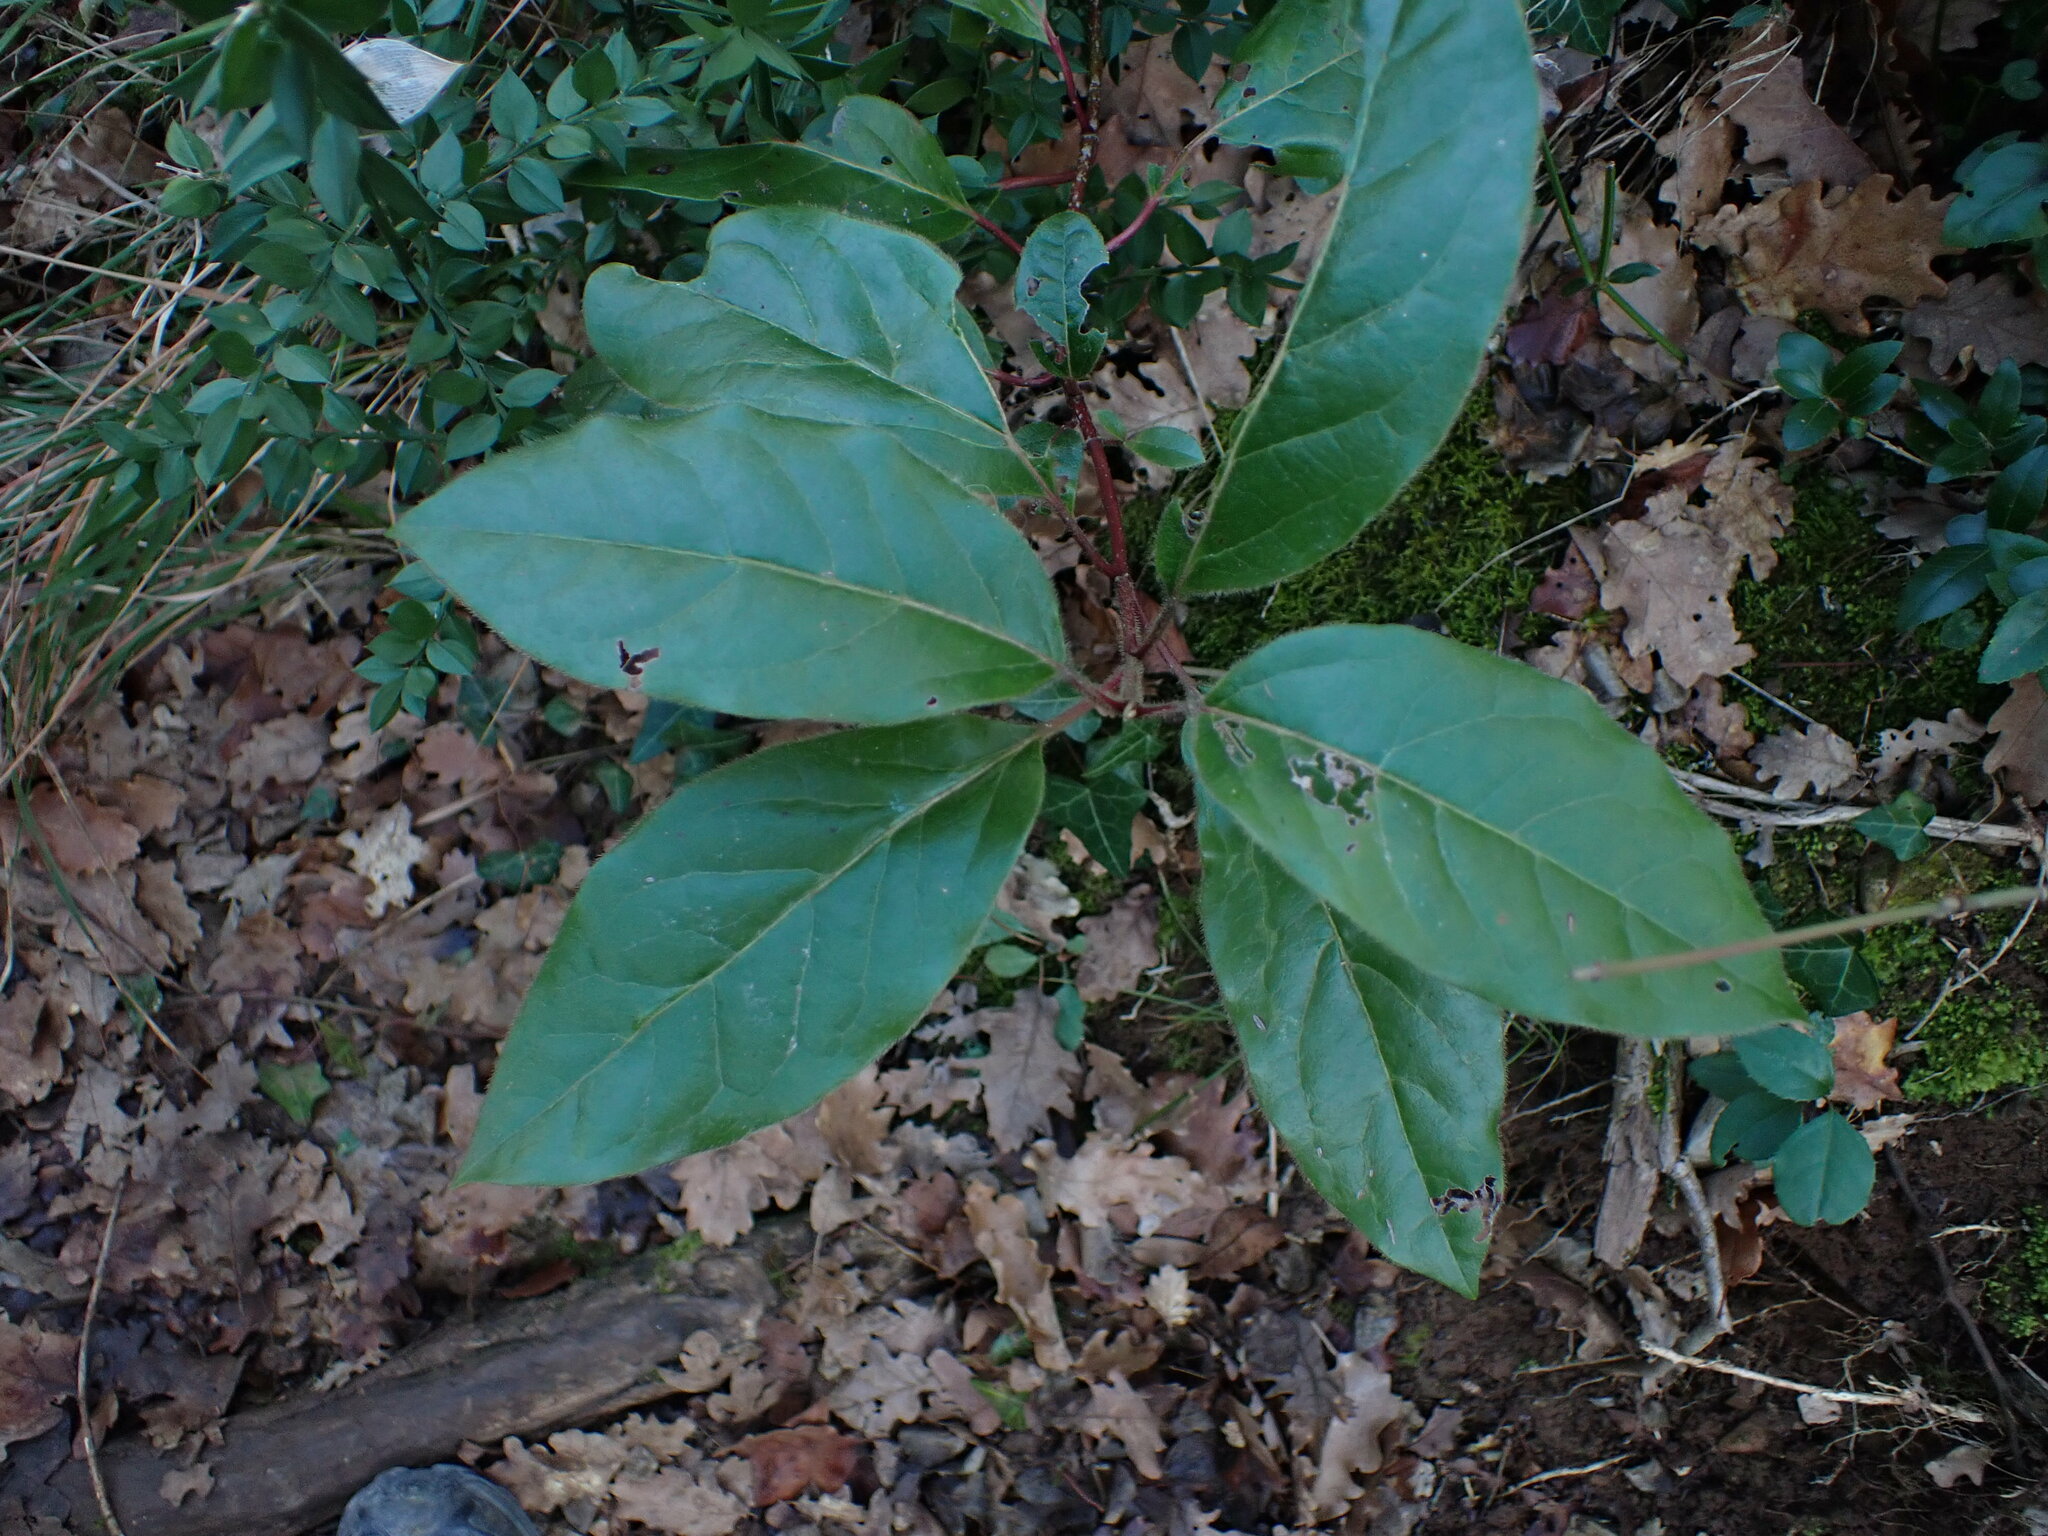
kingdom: Plantae
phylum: Tracheophyta
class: Magnoliopsida
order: Dipsacales
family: Viburnaceae
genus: Viburnum
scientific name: Viburnum tinus
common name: Laurustinus
